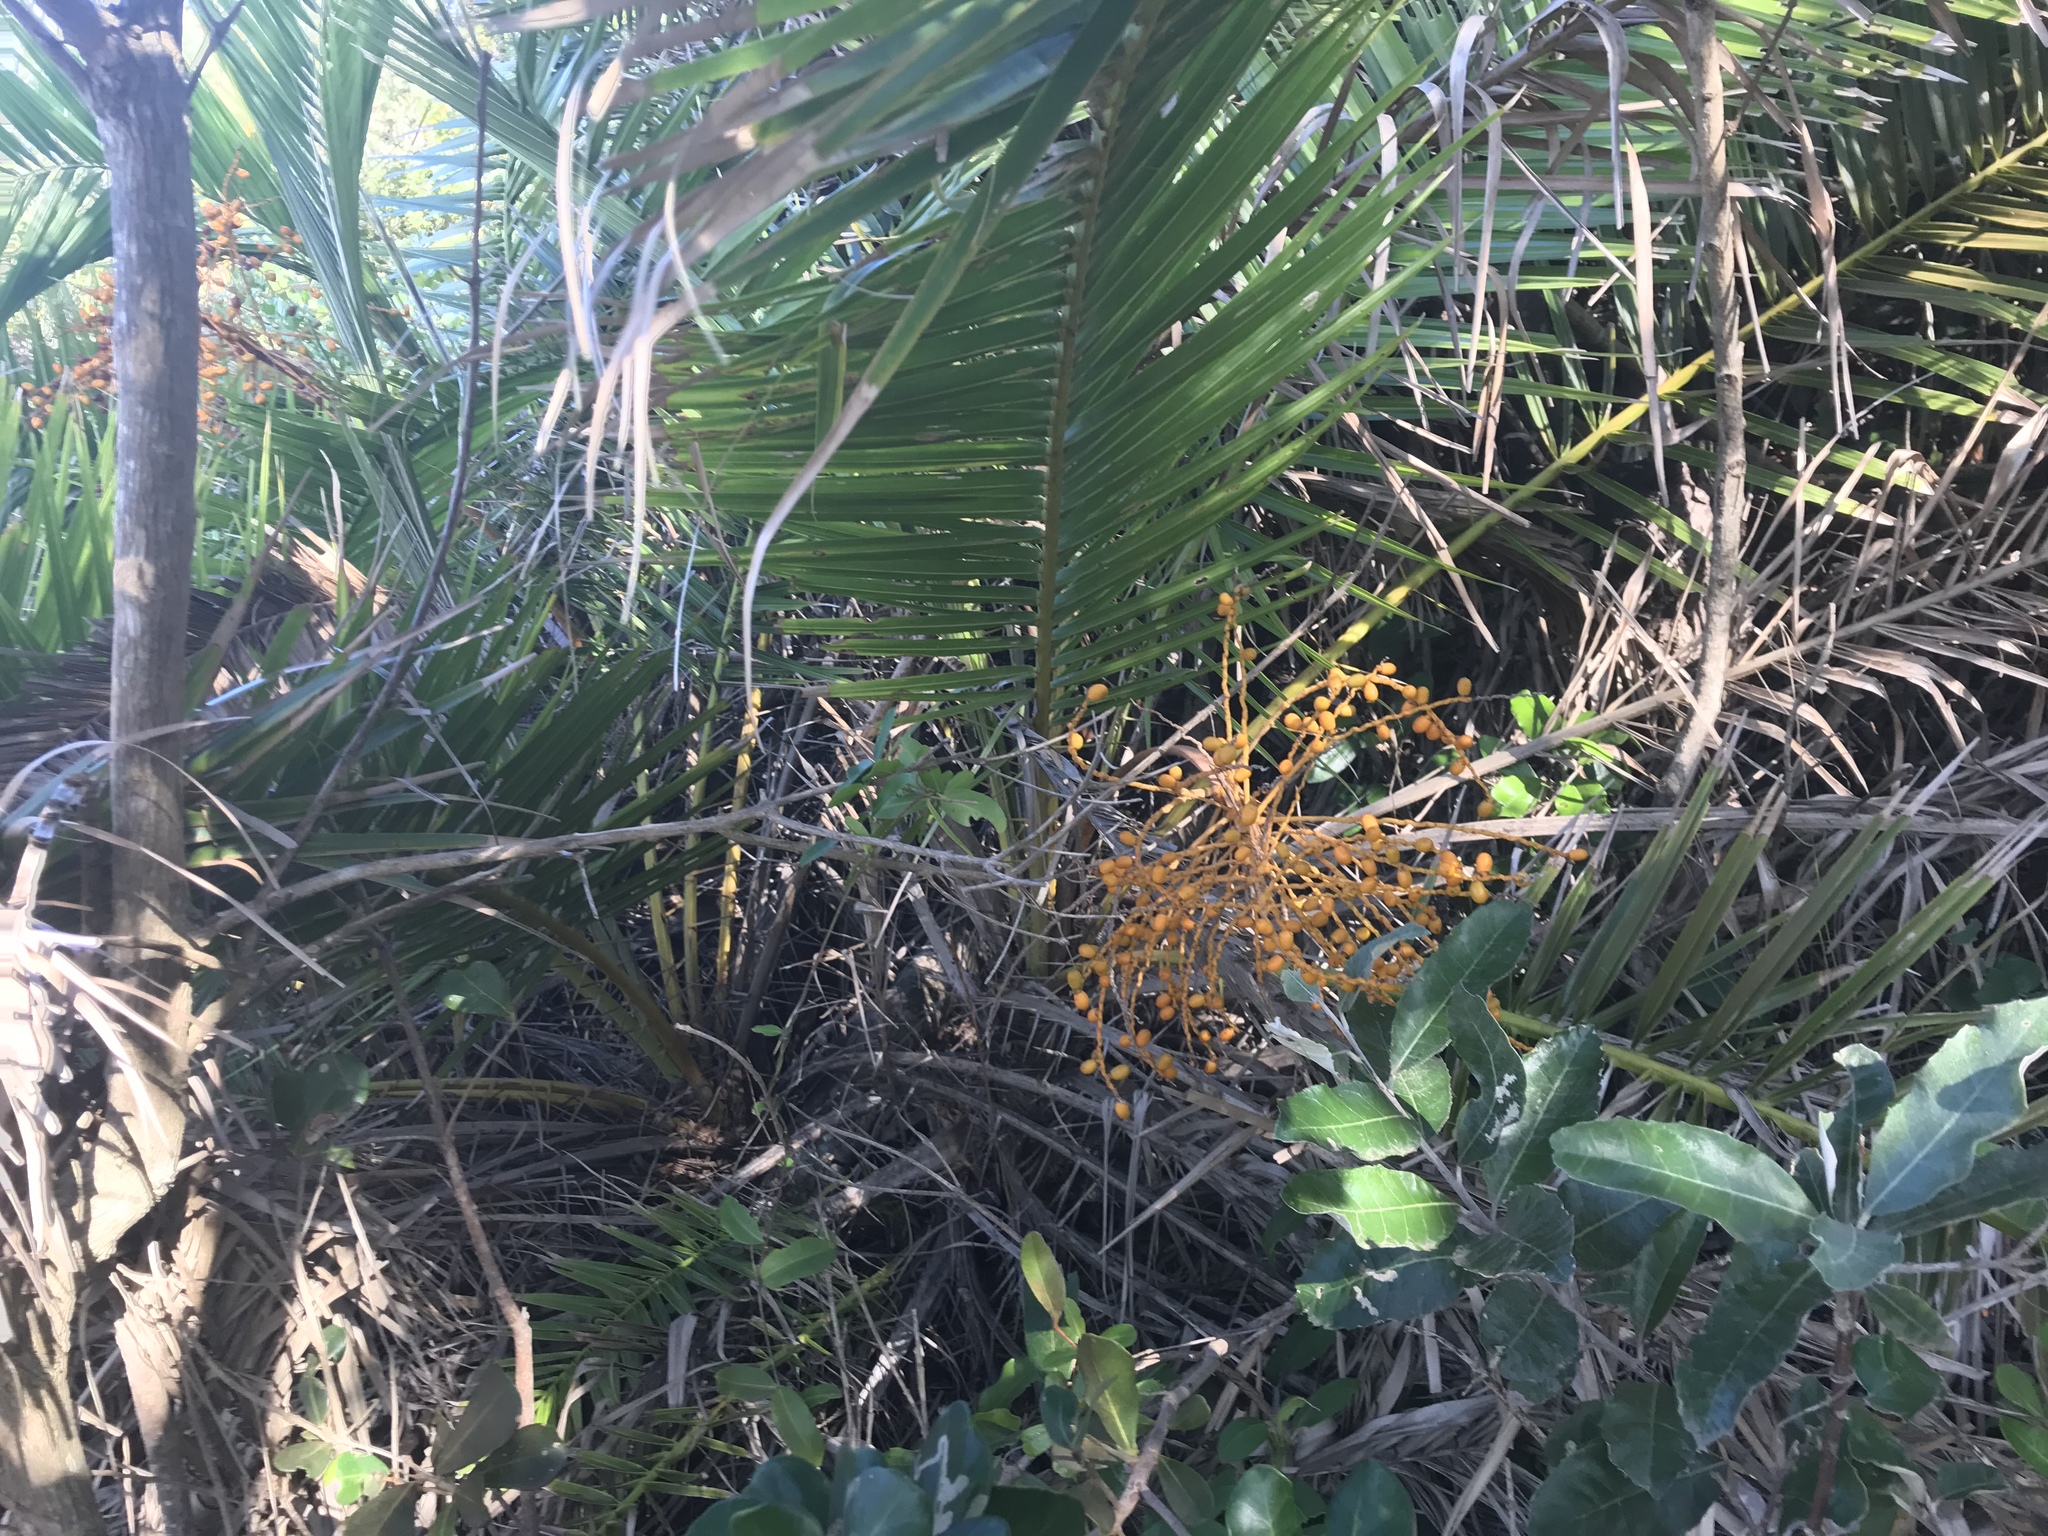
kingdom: Plantae
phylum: Tracheophyta
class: Liliopsida
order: Arecales
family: Arecaceae
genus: Phoenix
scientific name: Phoenix reclinata
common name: Senegal date palm
